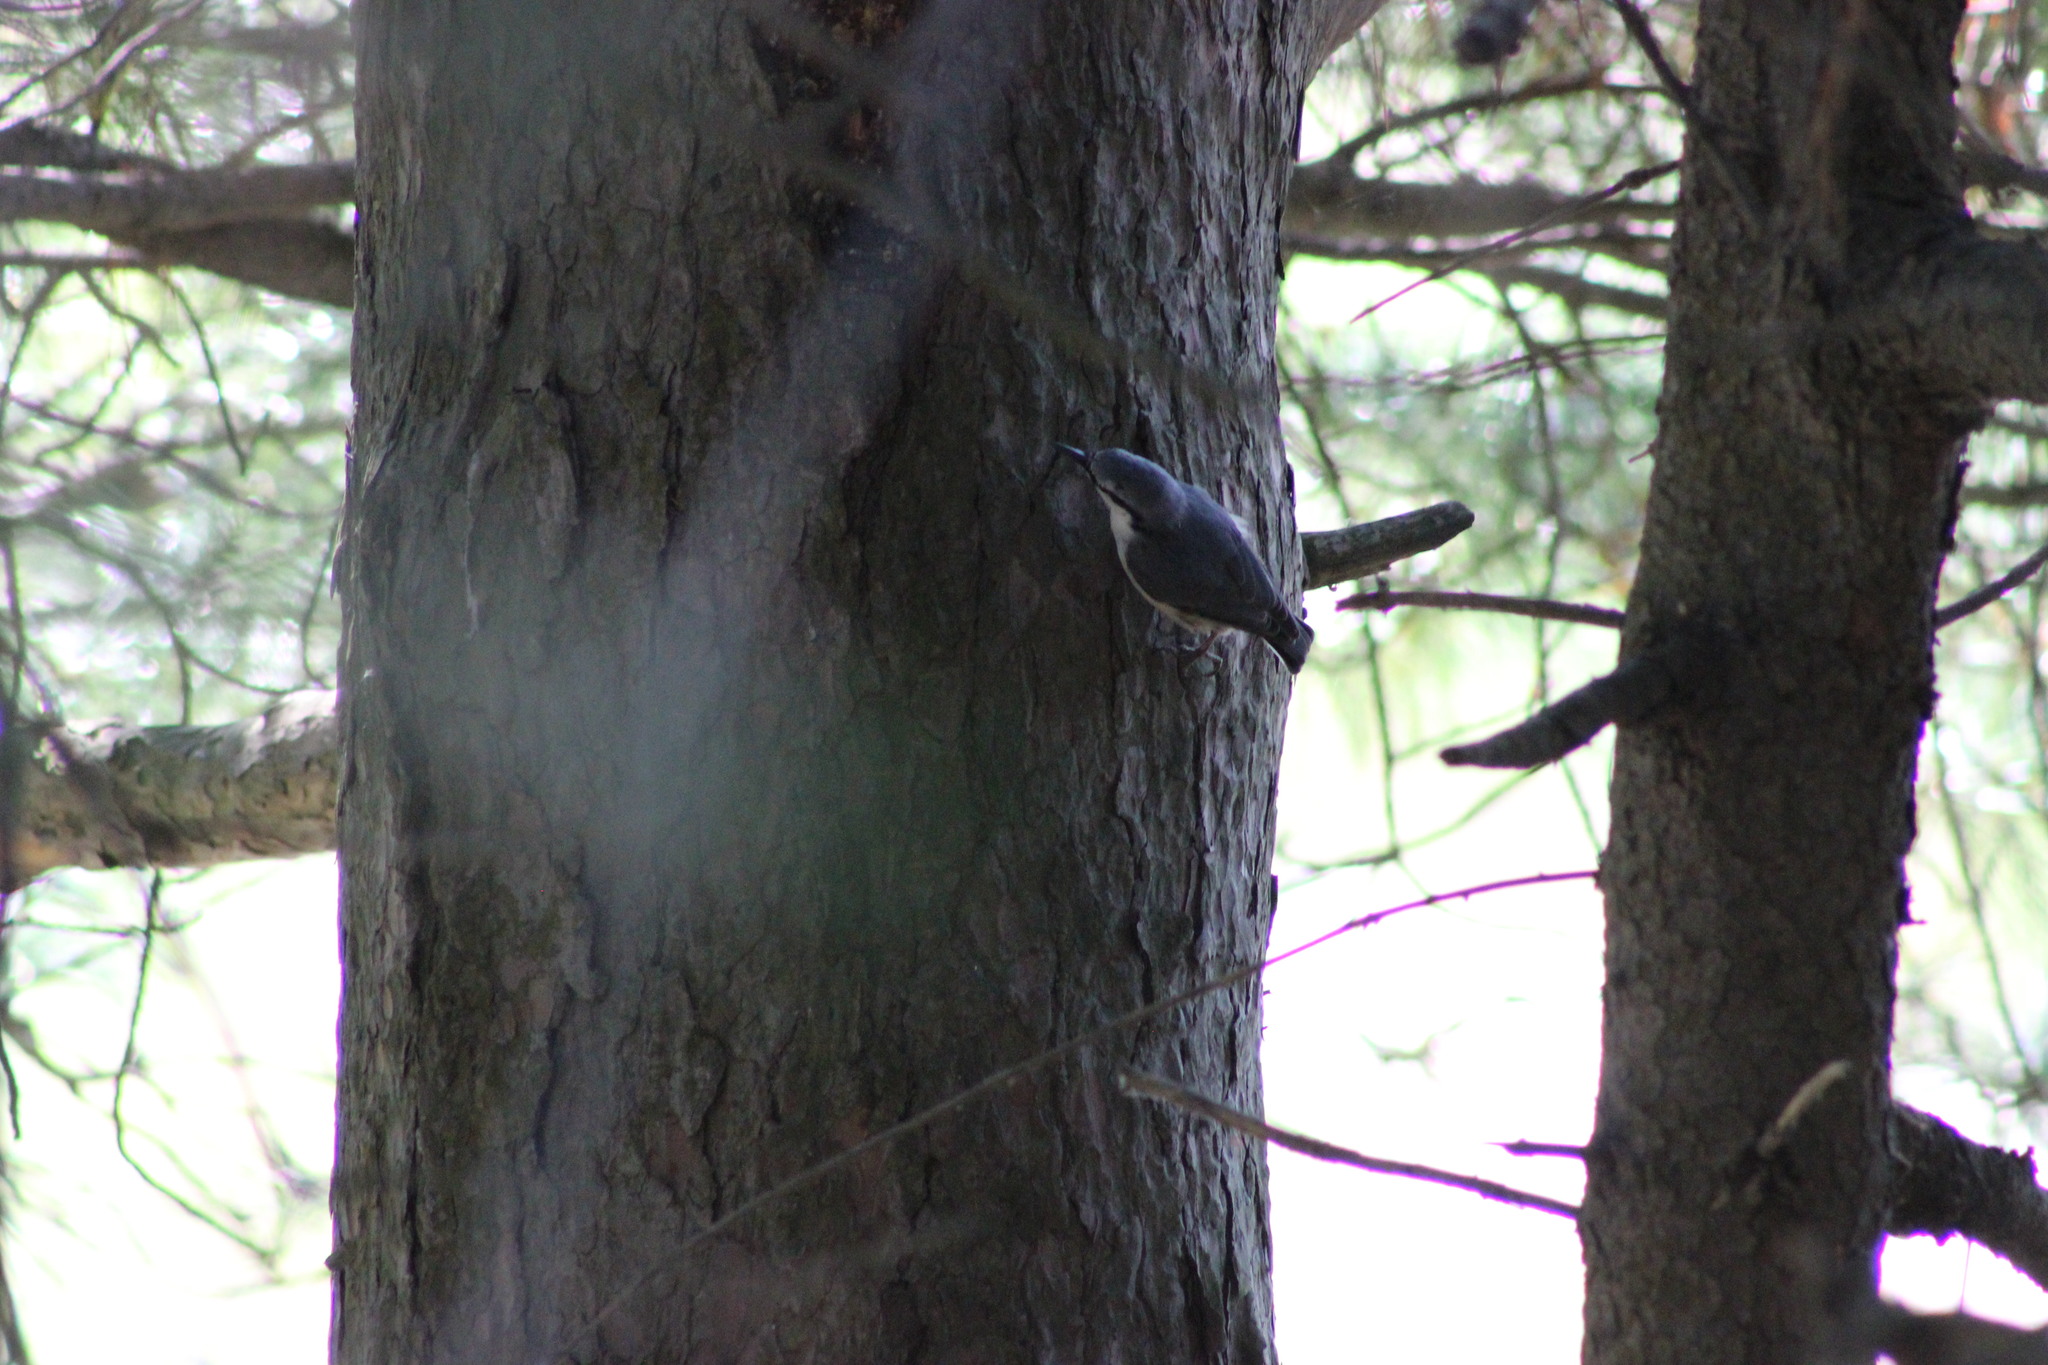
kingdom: Animalia
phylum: Chordata
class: Aves
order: Passeriformes
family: Sittidae
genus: Sitta
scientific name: Sitta europaea
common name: Eurasian nuthatch
